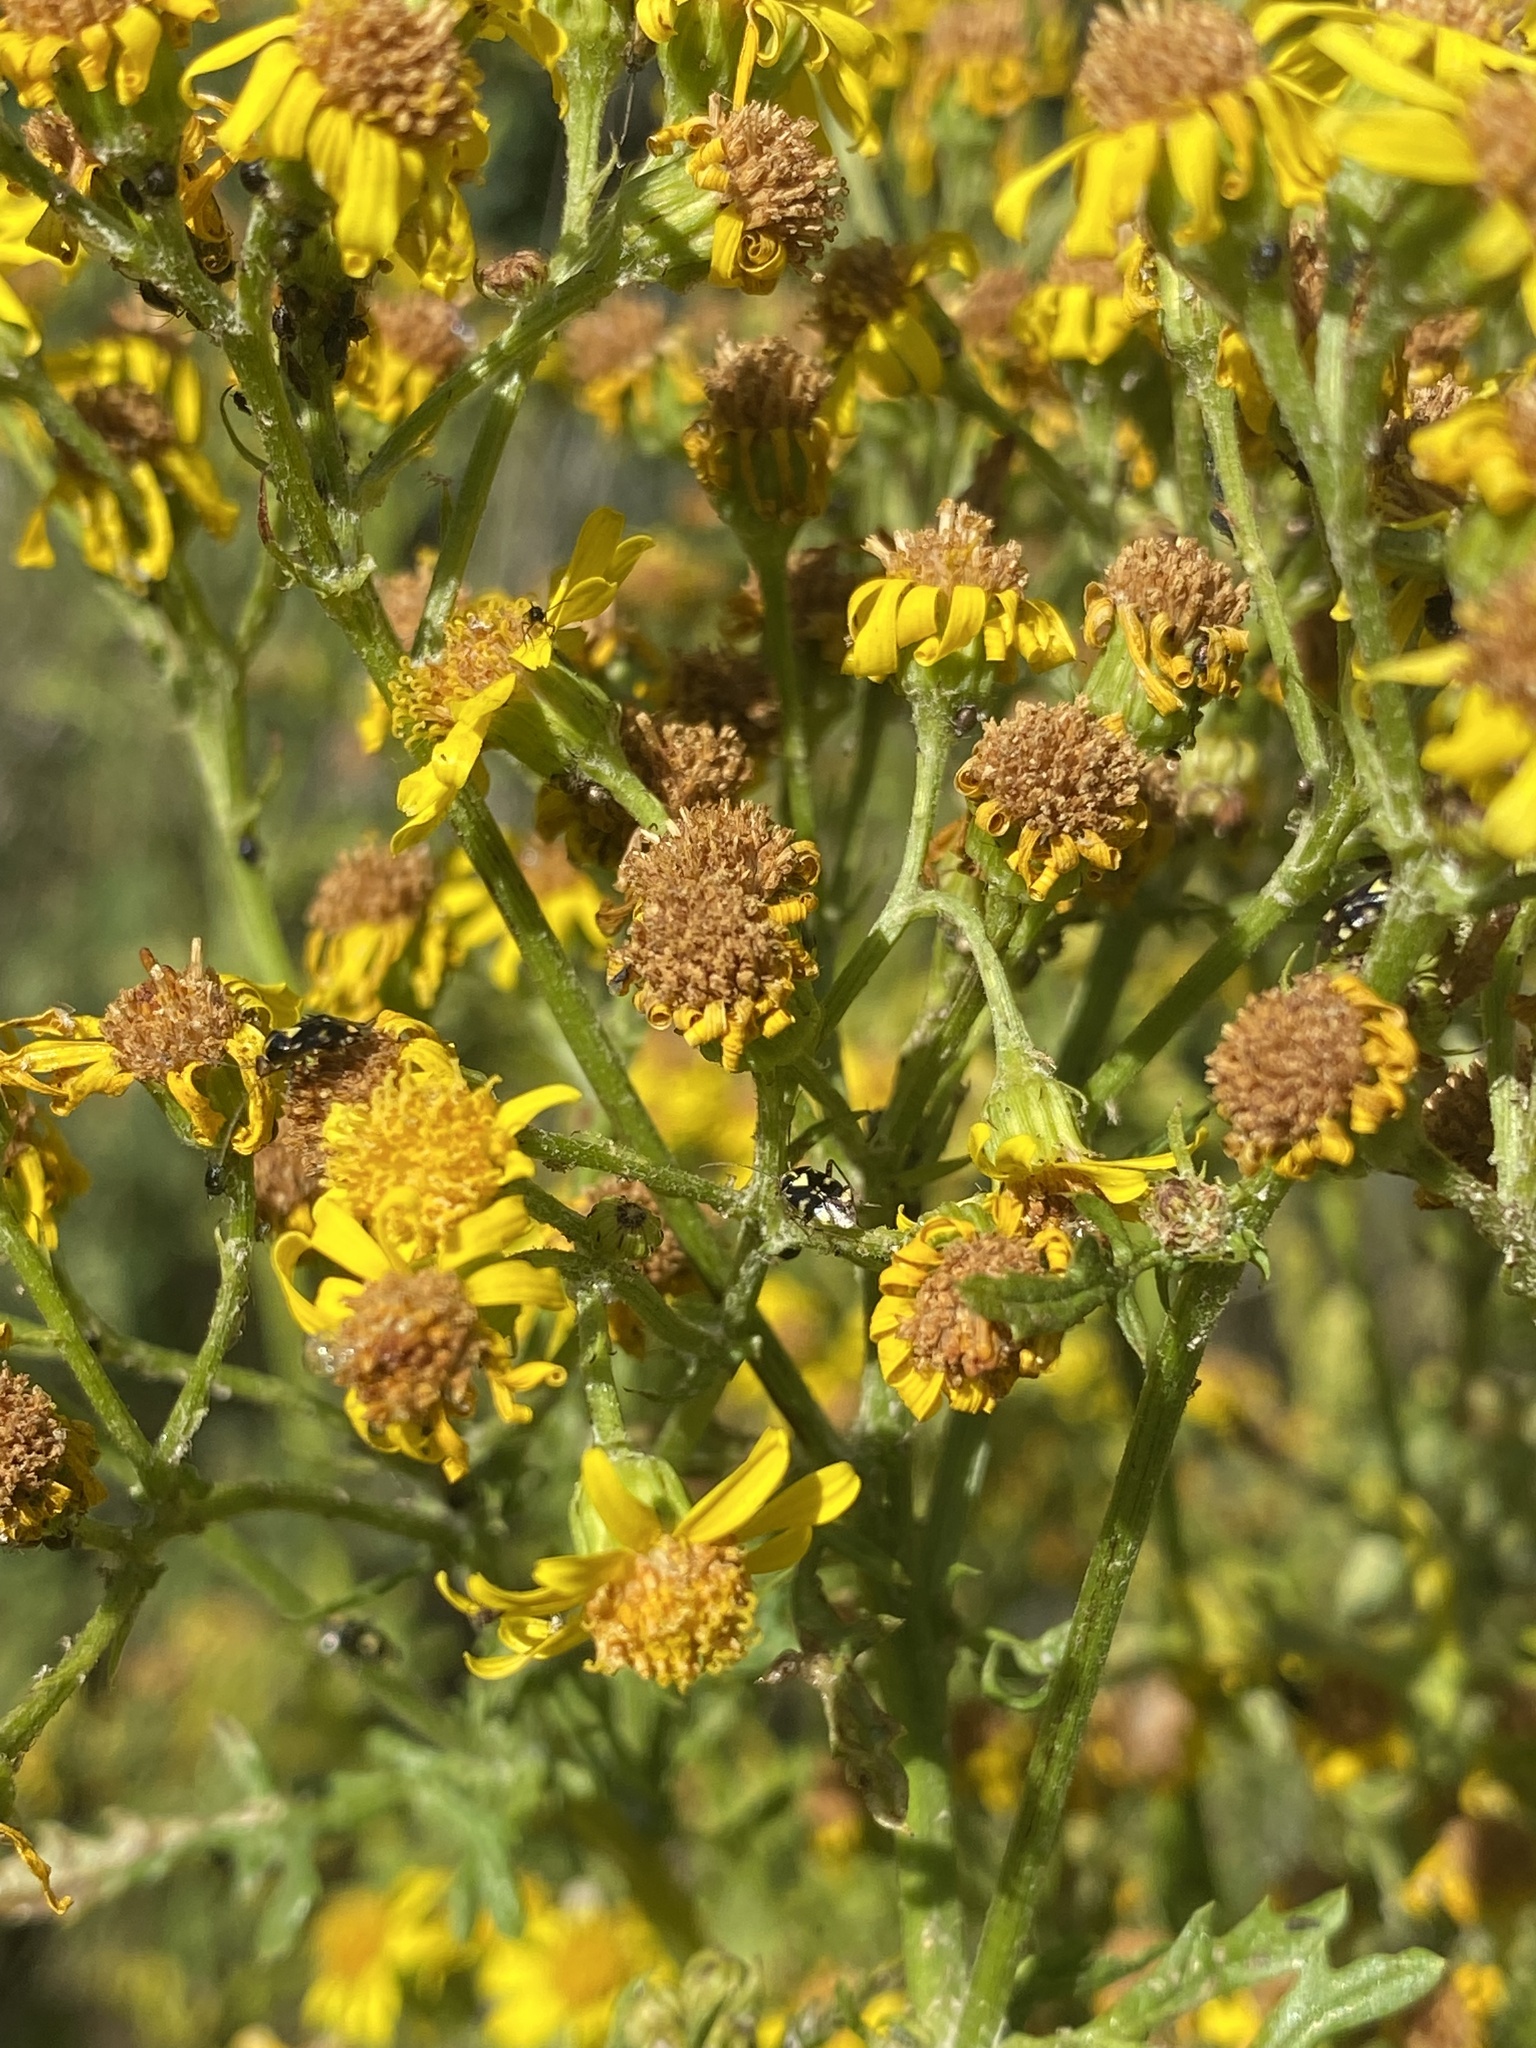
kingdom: Animalia
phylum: Arthropoda
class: Insecta
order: Hemiptera
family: Miridae
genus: Liocoris
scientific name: Liocoris tripustulatus
